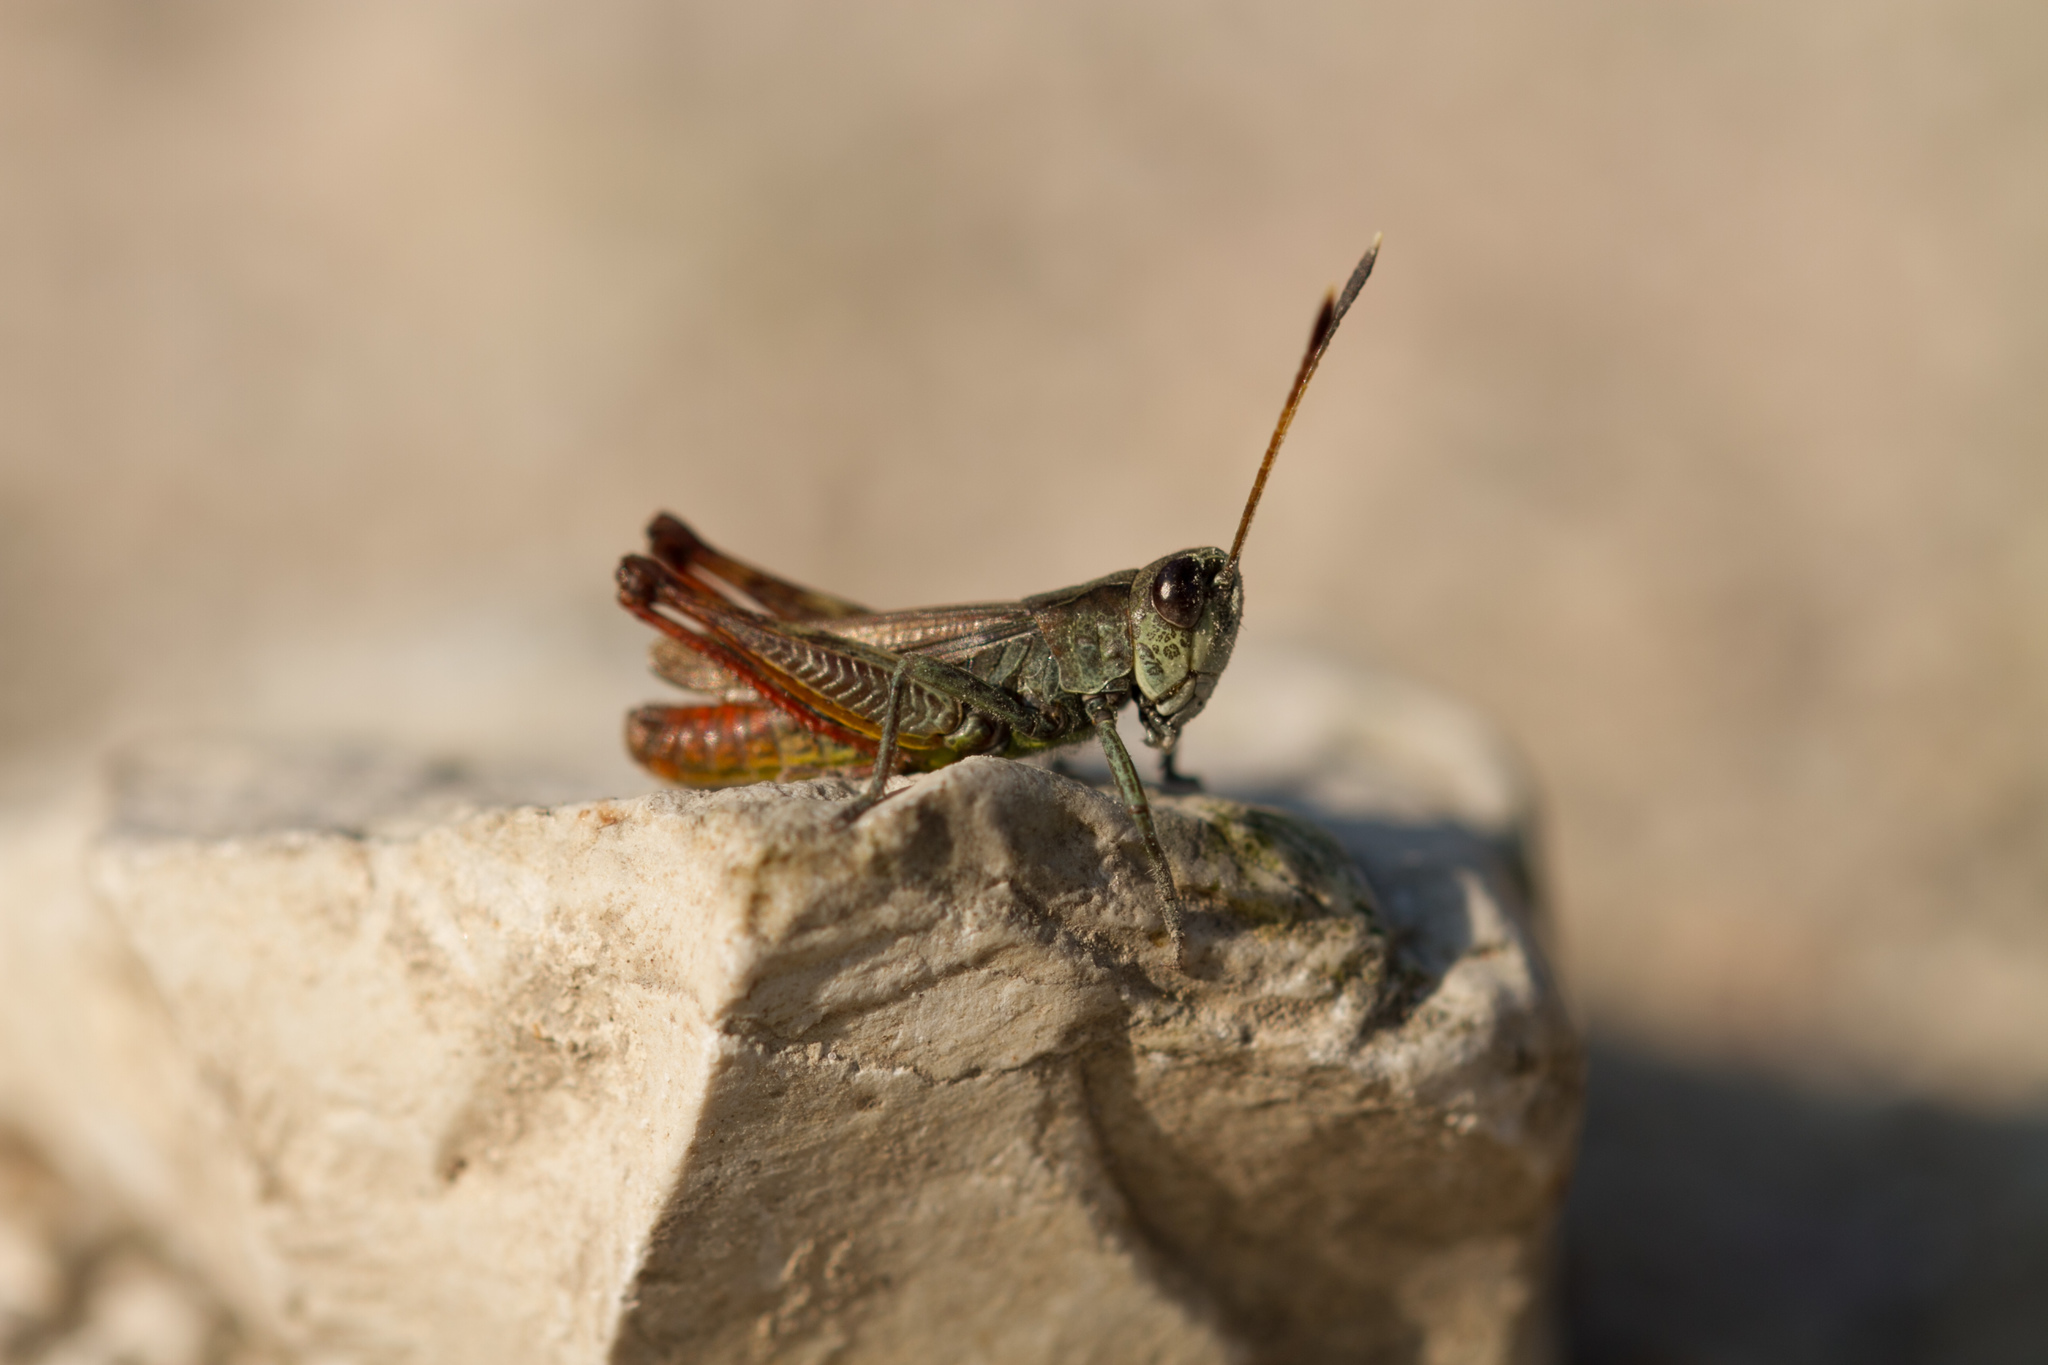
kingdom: Animalia
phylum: Arthropoda
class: Insecta
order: Orthoptera
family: Acrididae
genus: Gomphocerippus
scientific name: Gomphocerippus rufus
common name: Rufous grasshopper
